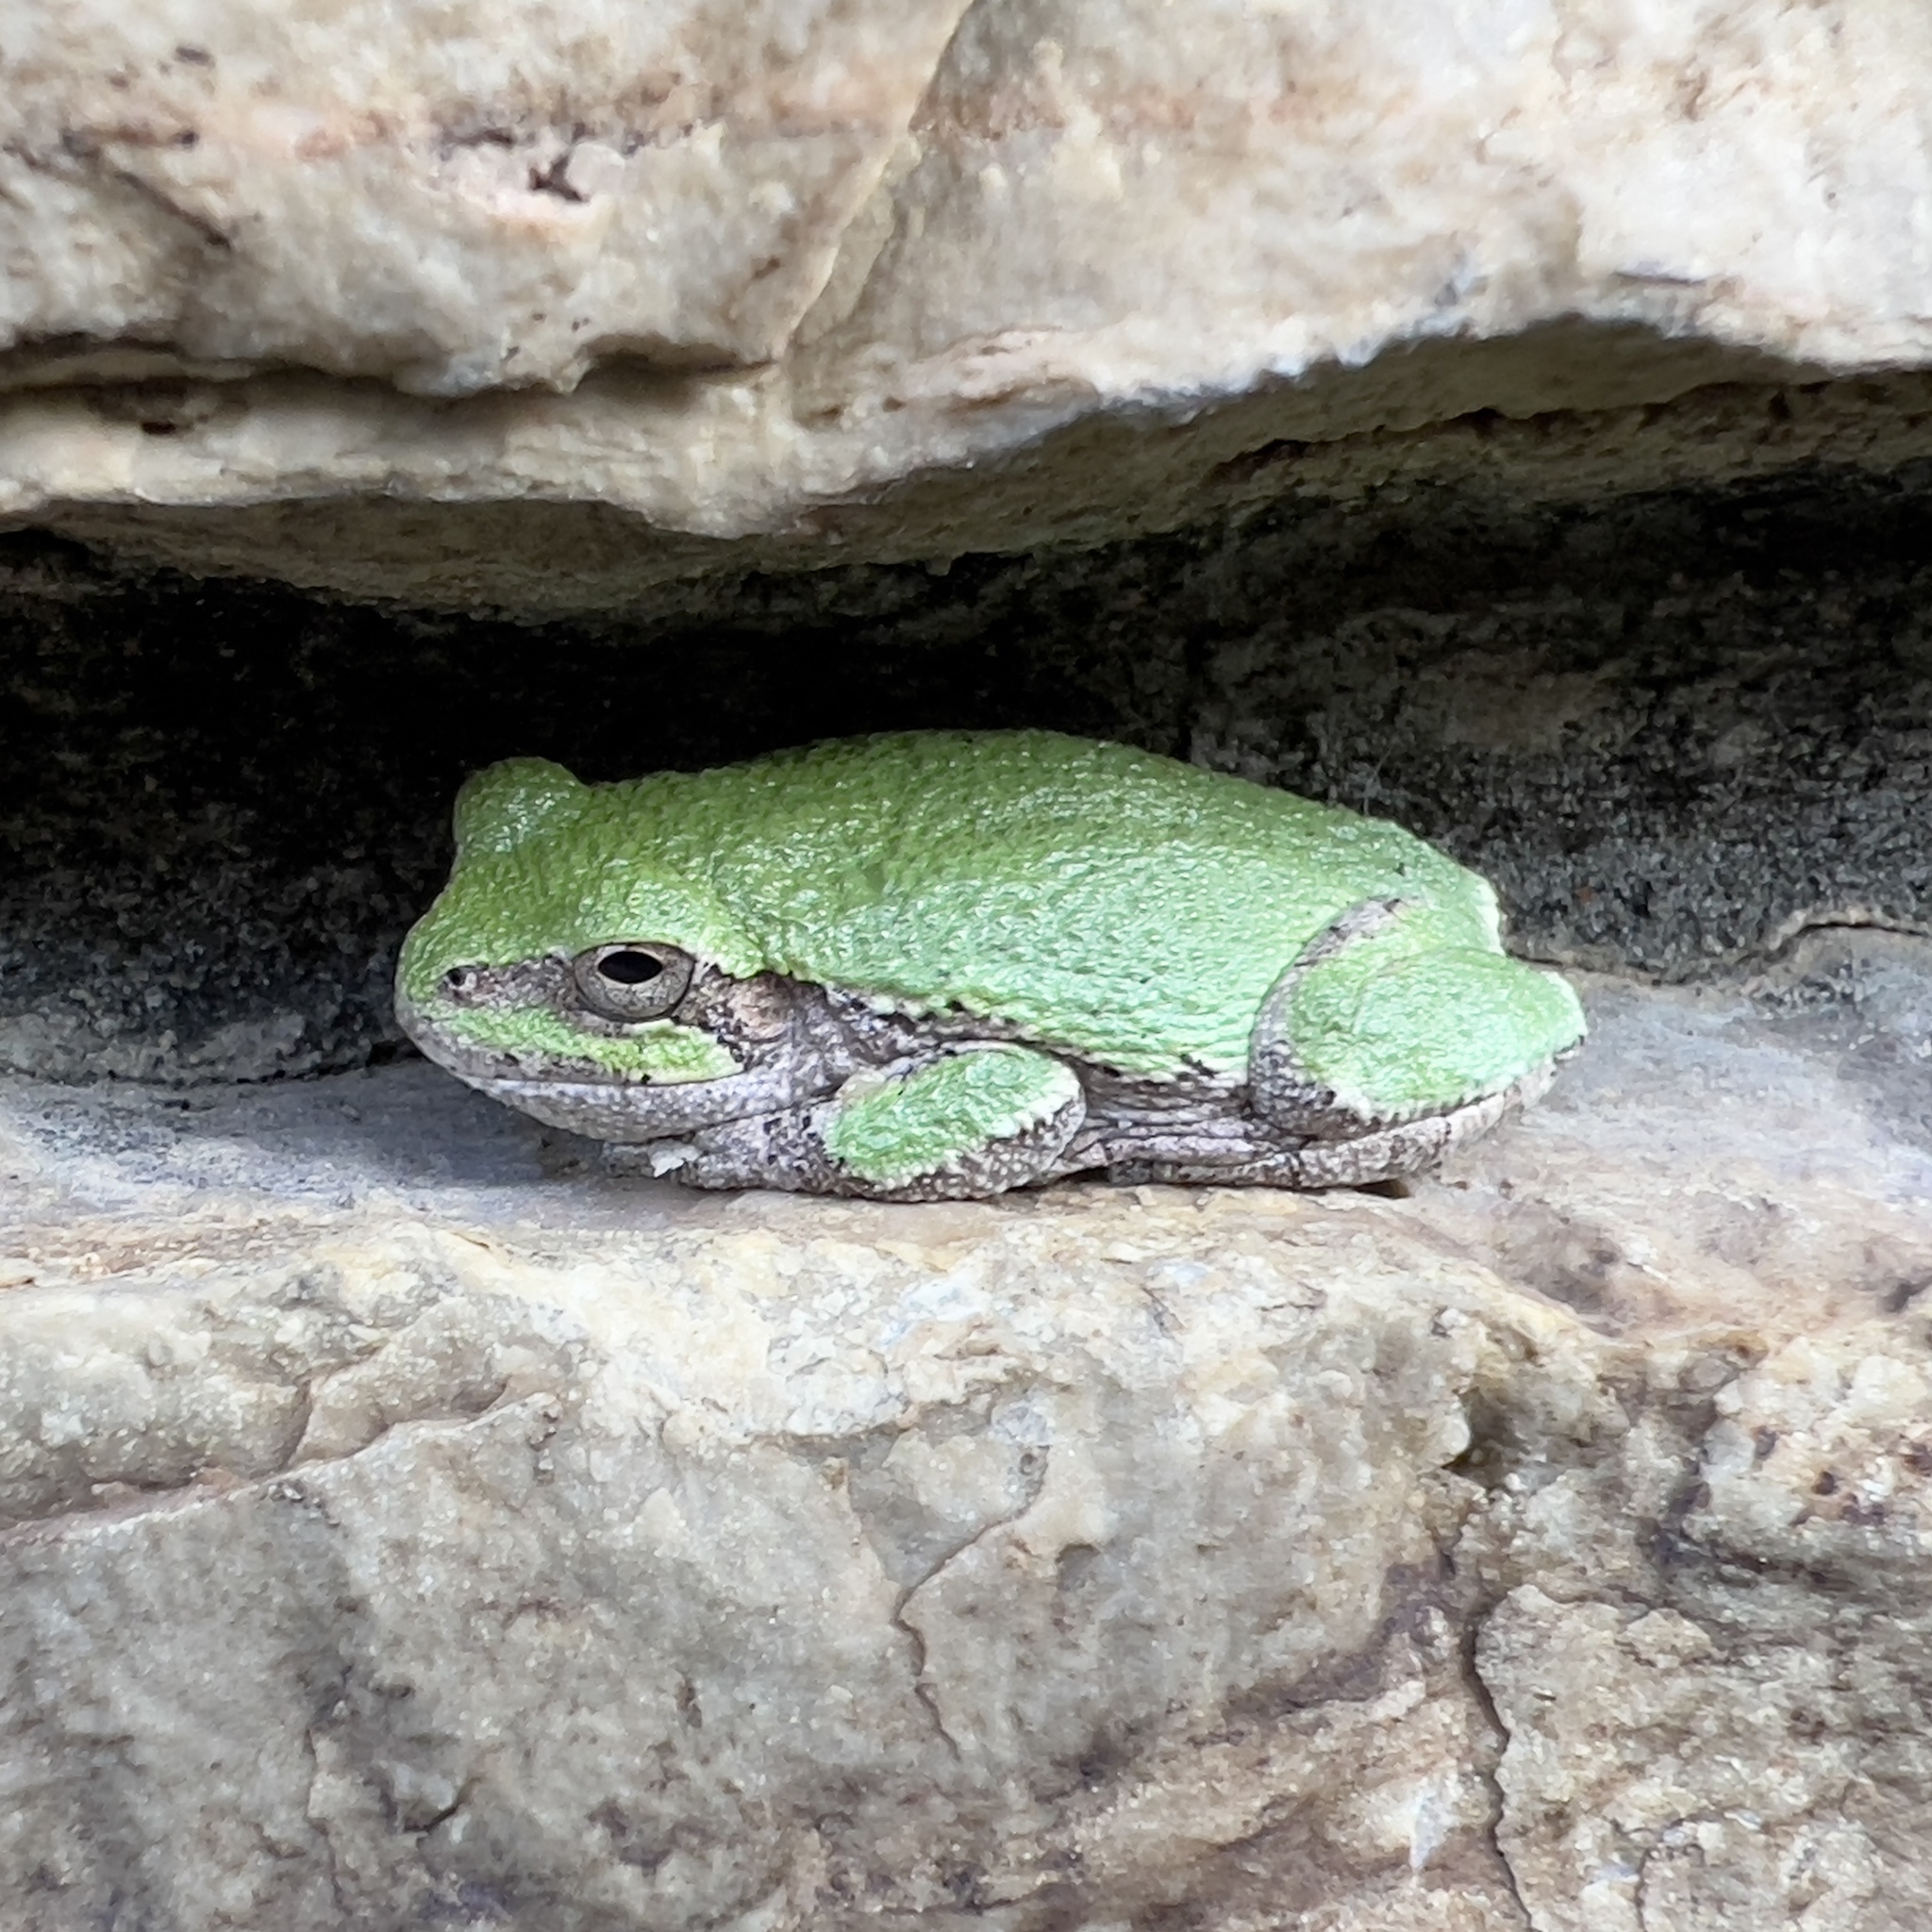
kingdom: Animalia
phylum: Chordata
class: Amphibia
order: Anura
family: Hylidae
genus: Hyla
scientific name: Hyla
